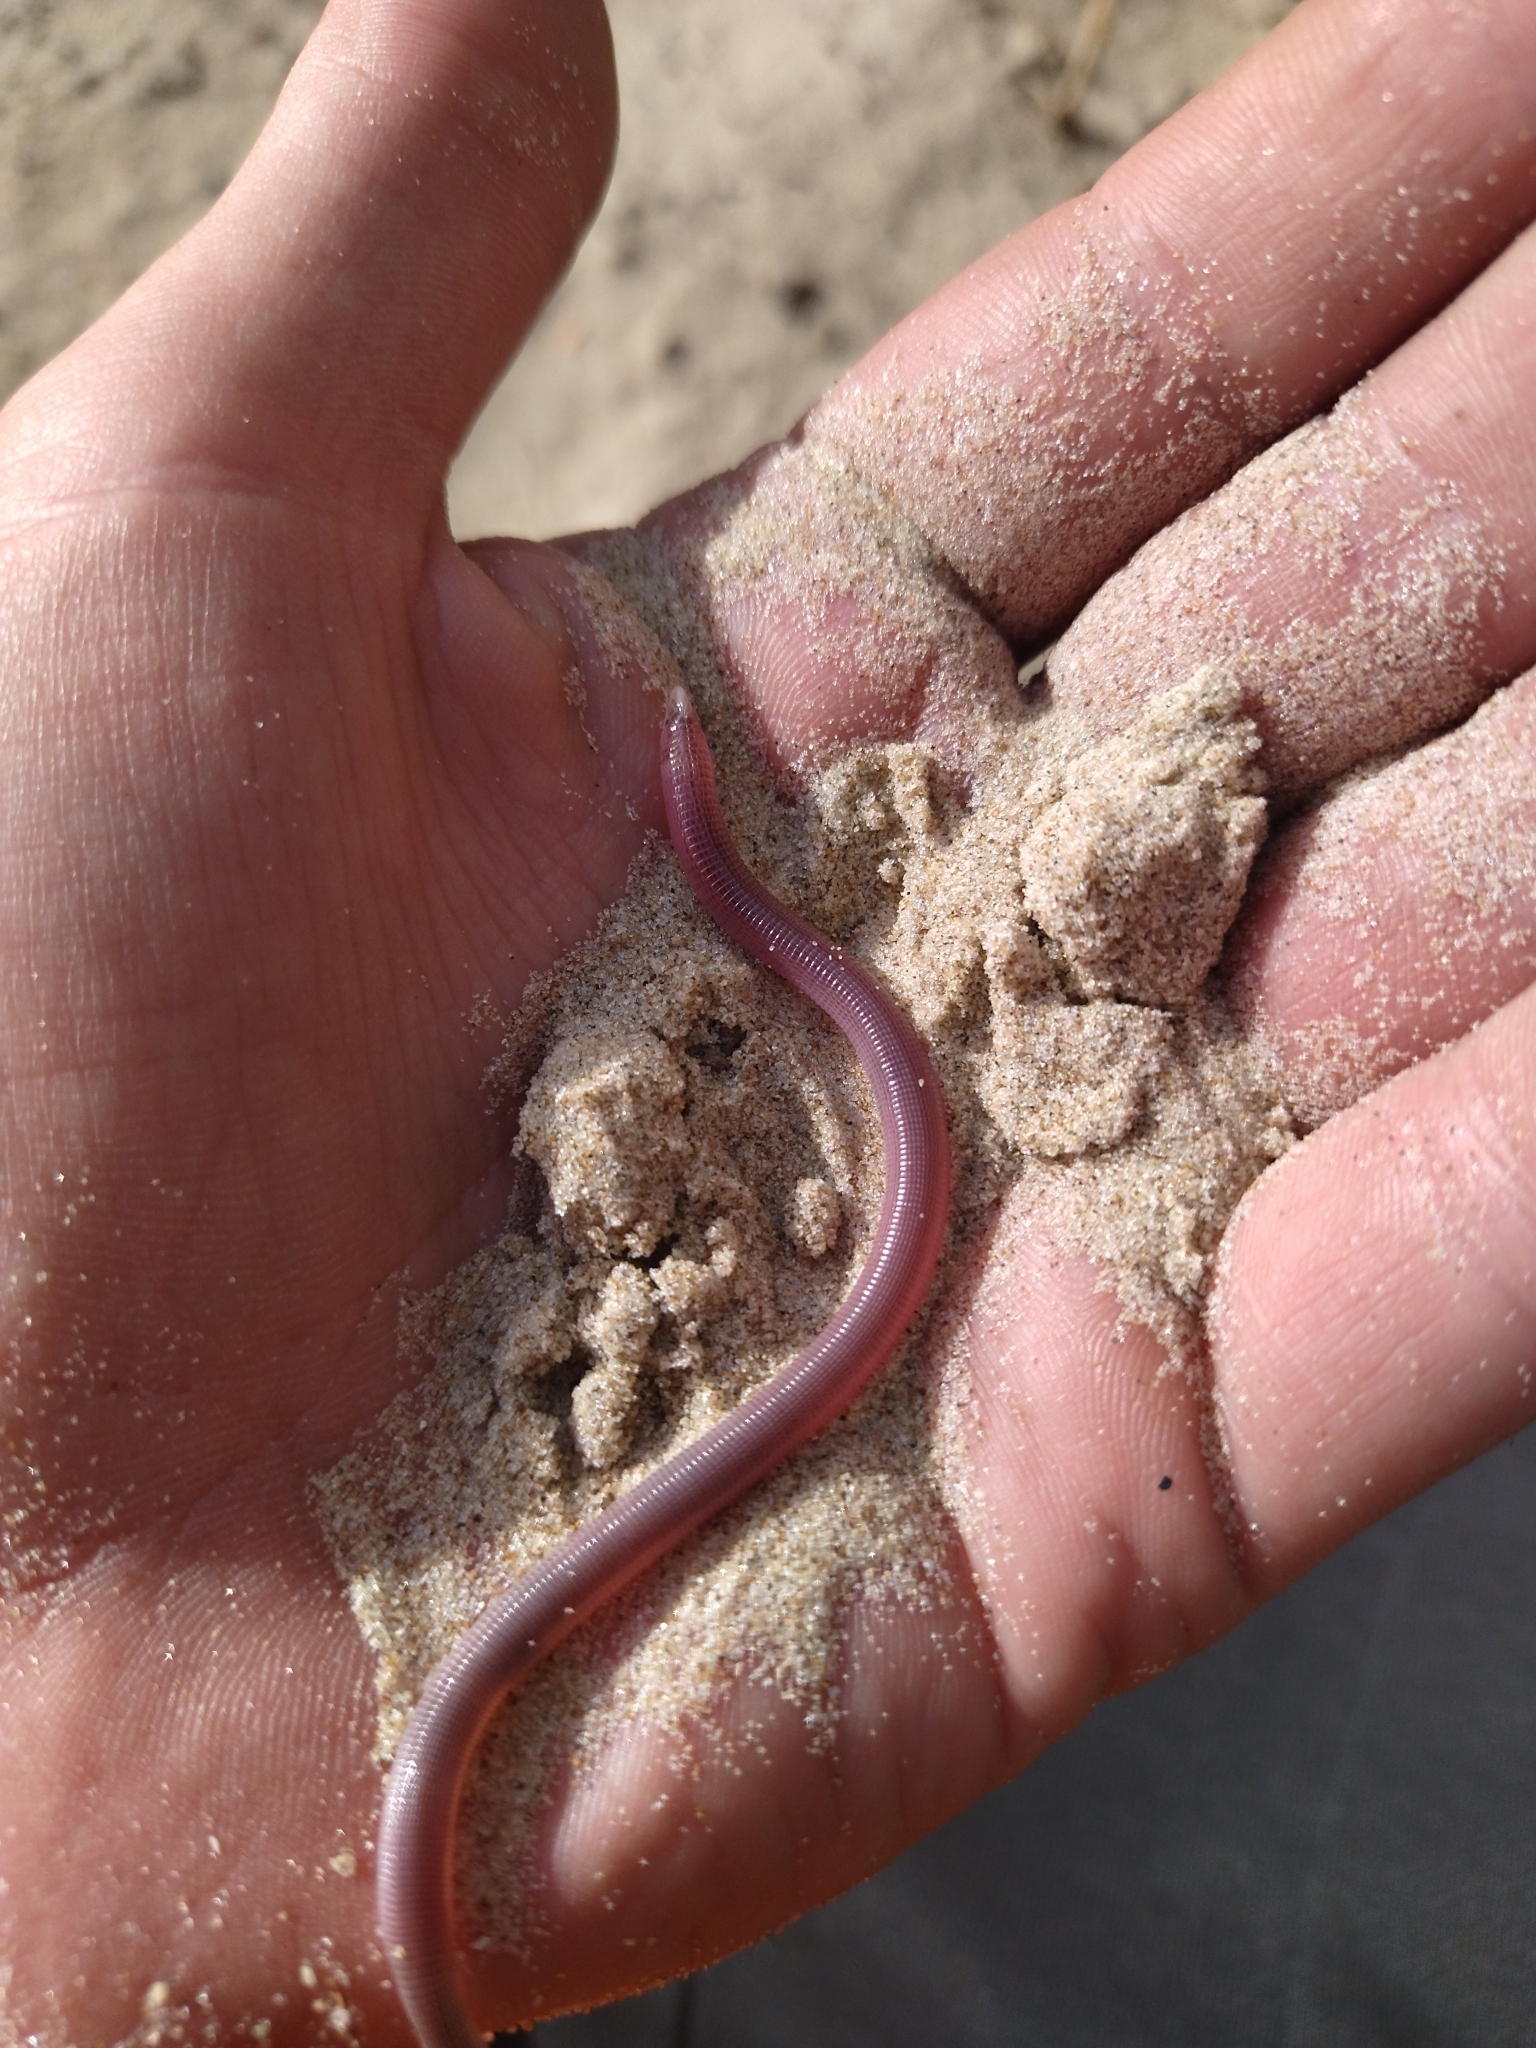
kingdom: Animalia
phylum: Chordata
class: Squamata
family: Amphisbaenidae
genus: Amphisbaena
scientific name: Amphisbaena kingii
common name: King's worm lizard
